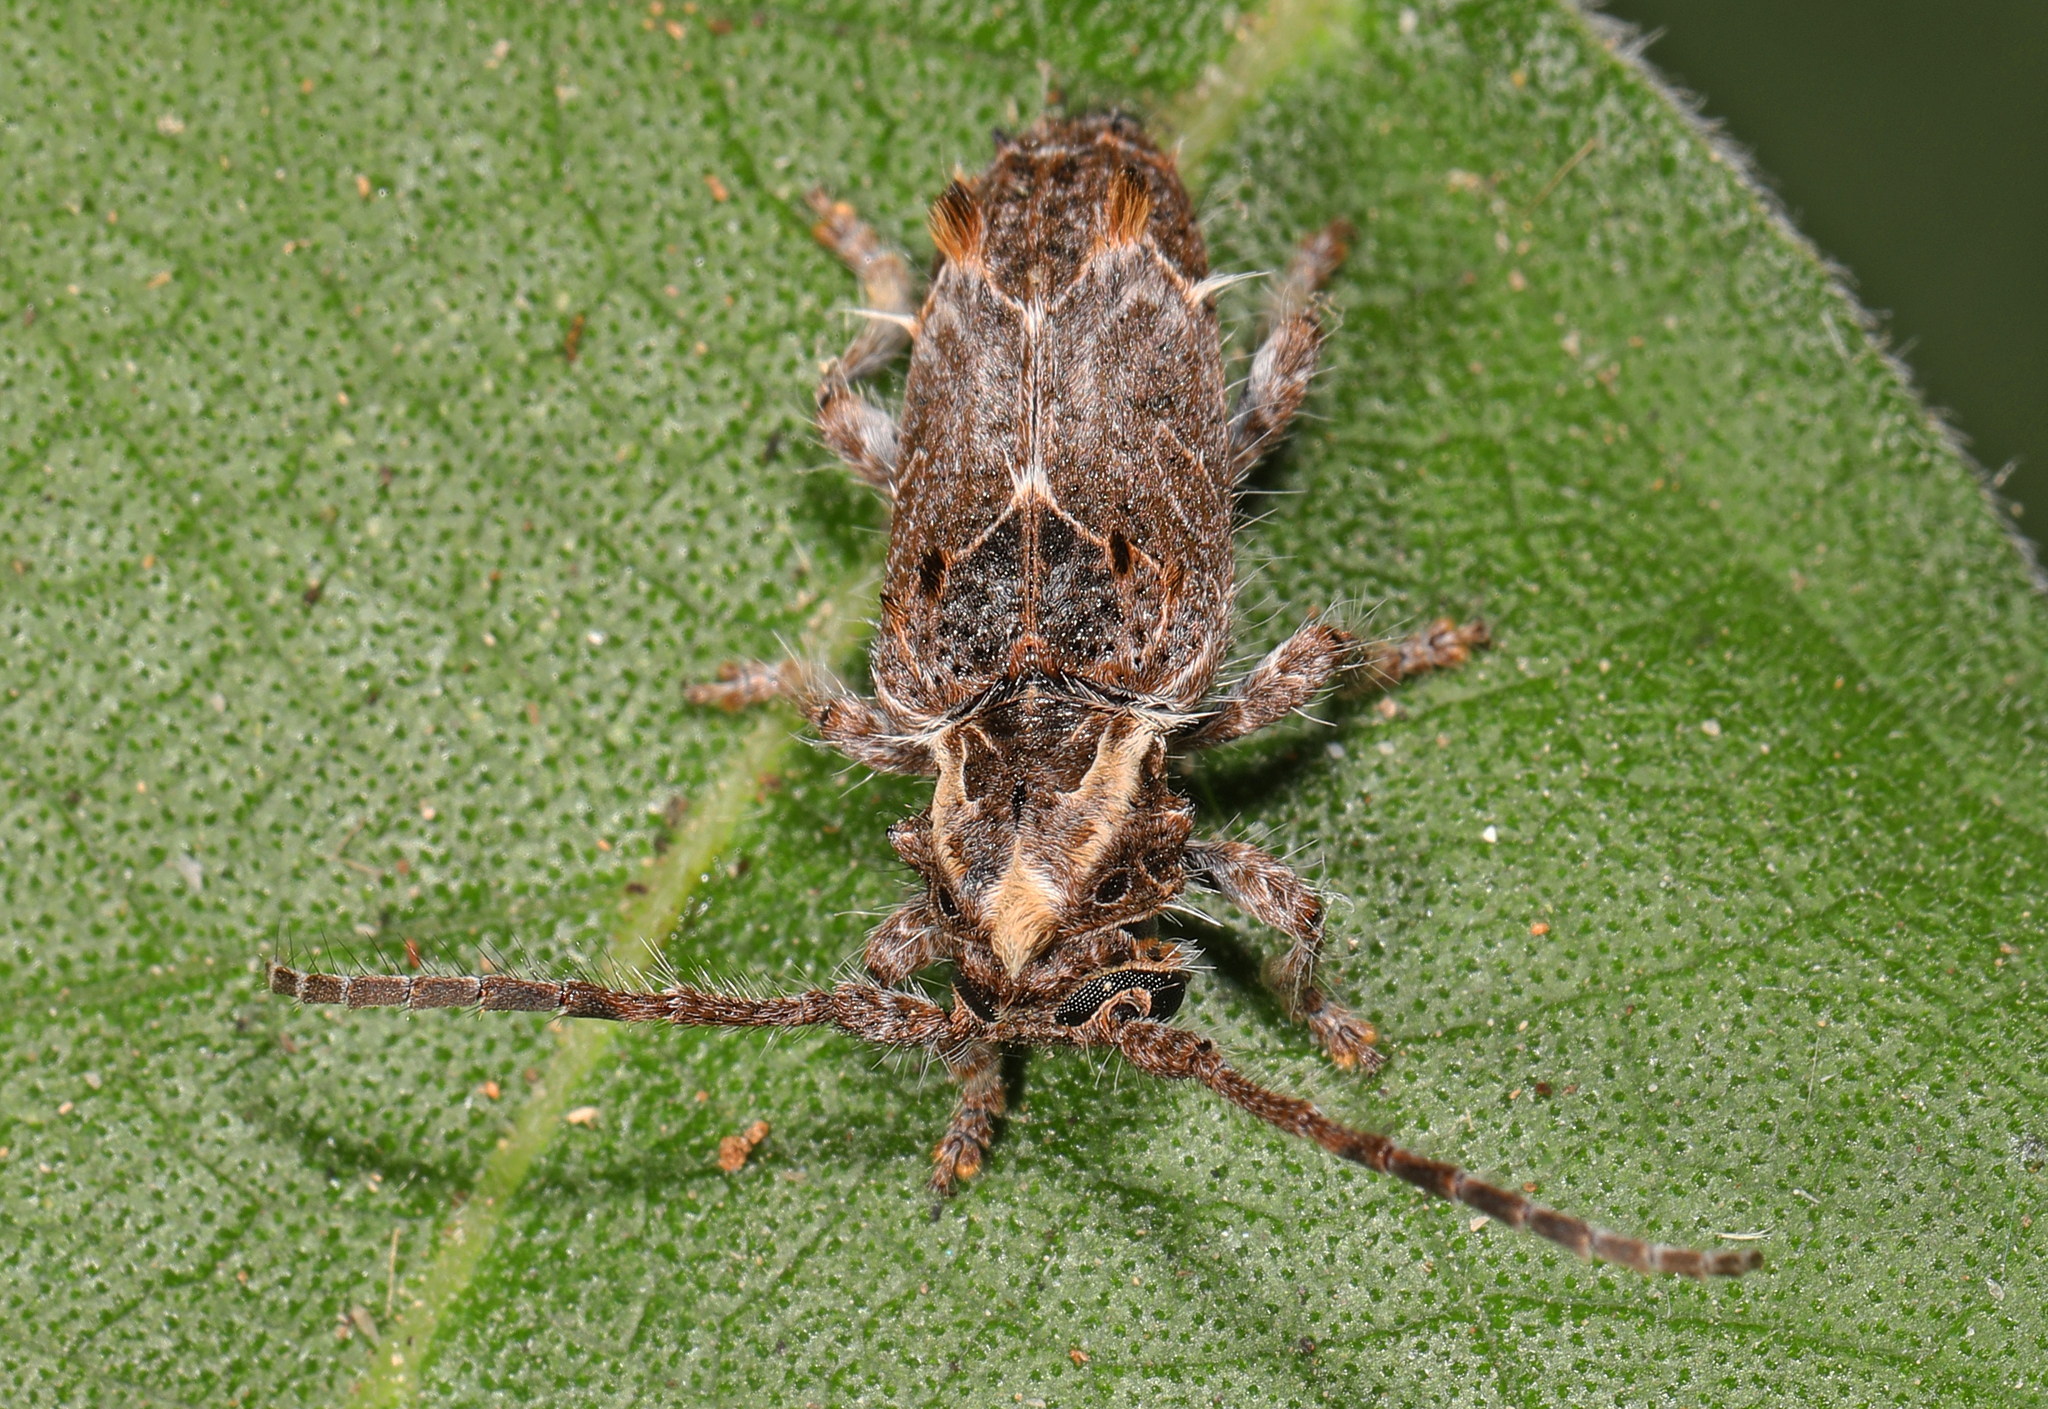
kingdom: Animalia
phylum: Arthropoda
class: Insecta
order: Coleoptera
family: Cerambycidae
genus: Desmiphora
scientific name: Desmiphora hirticollis
